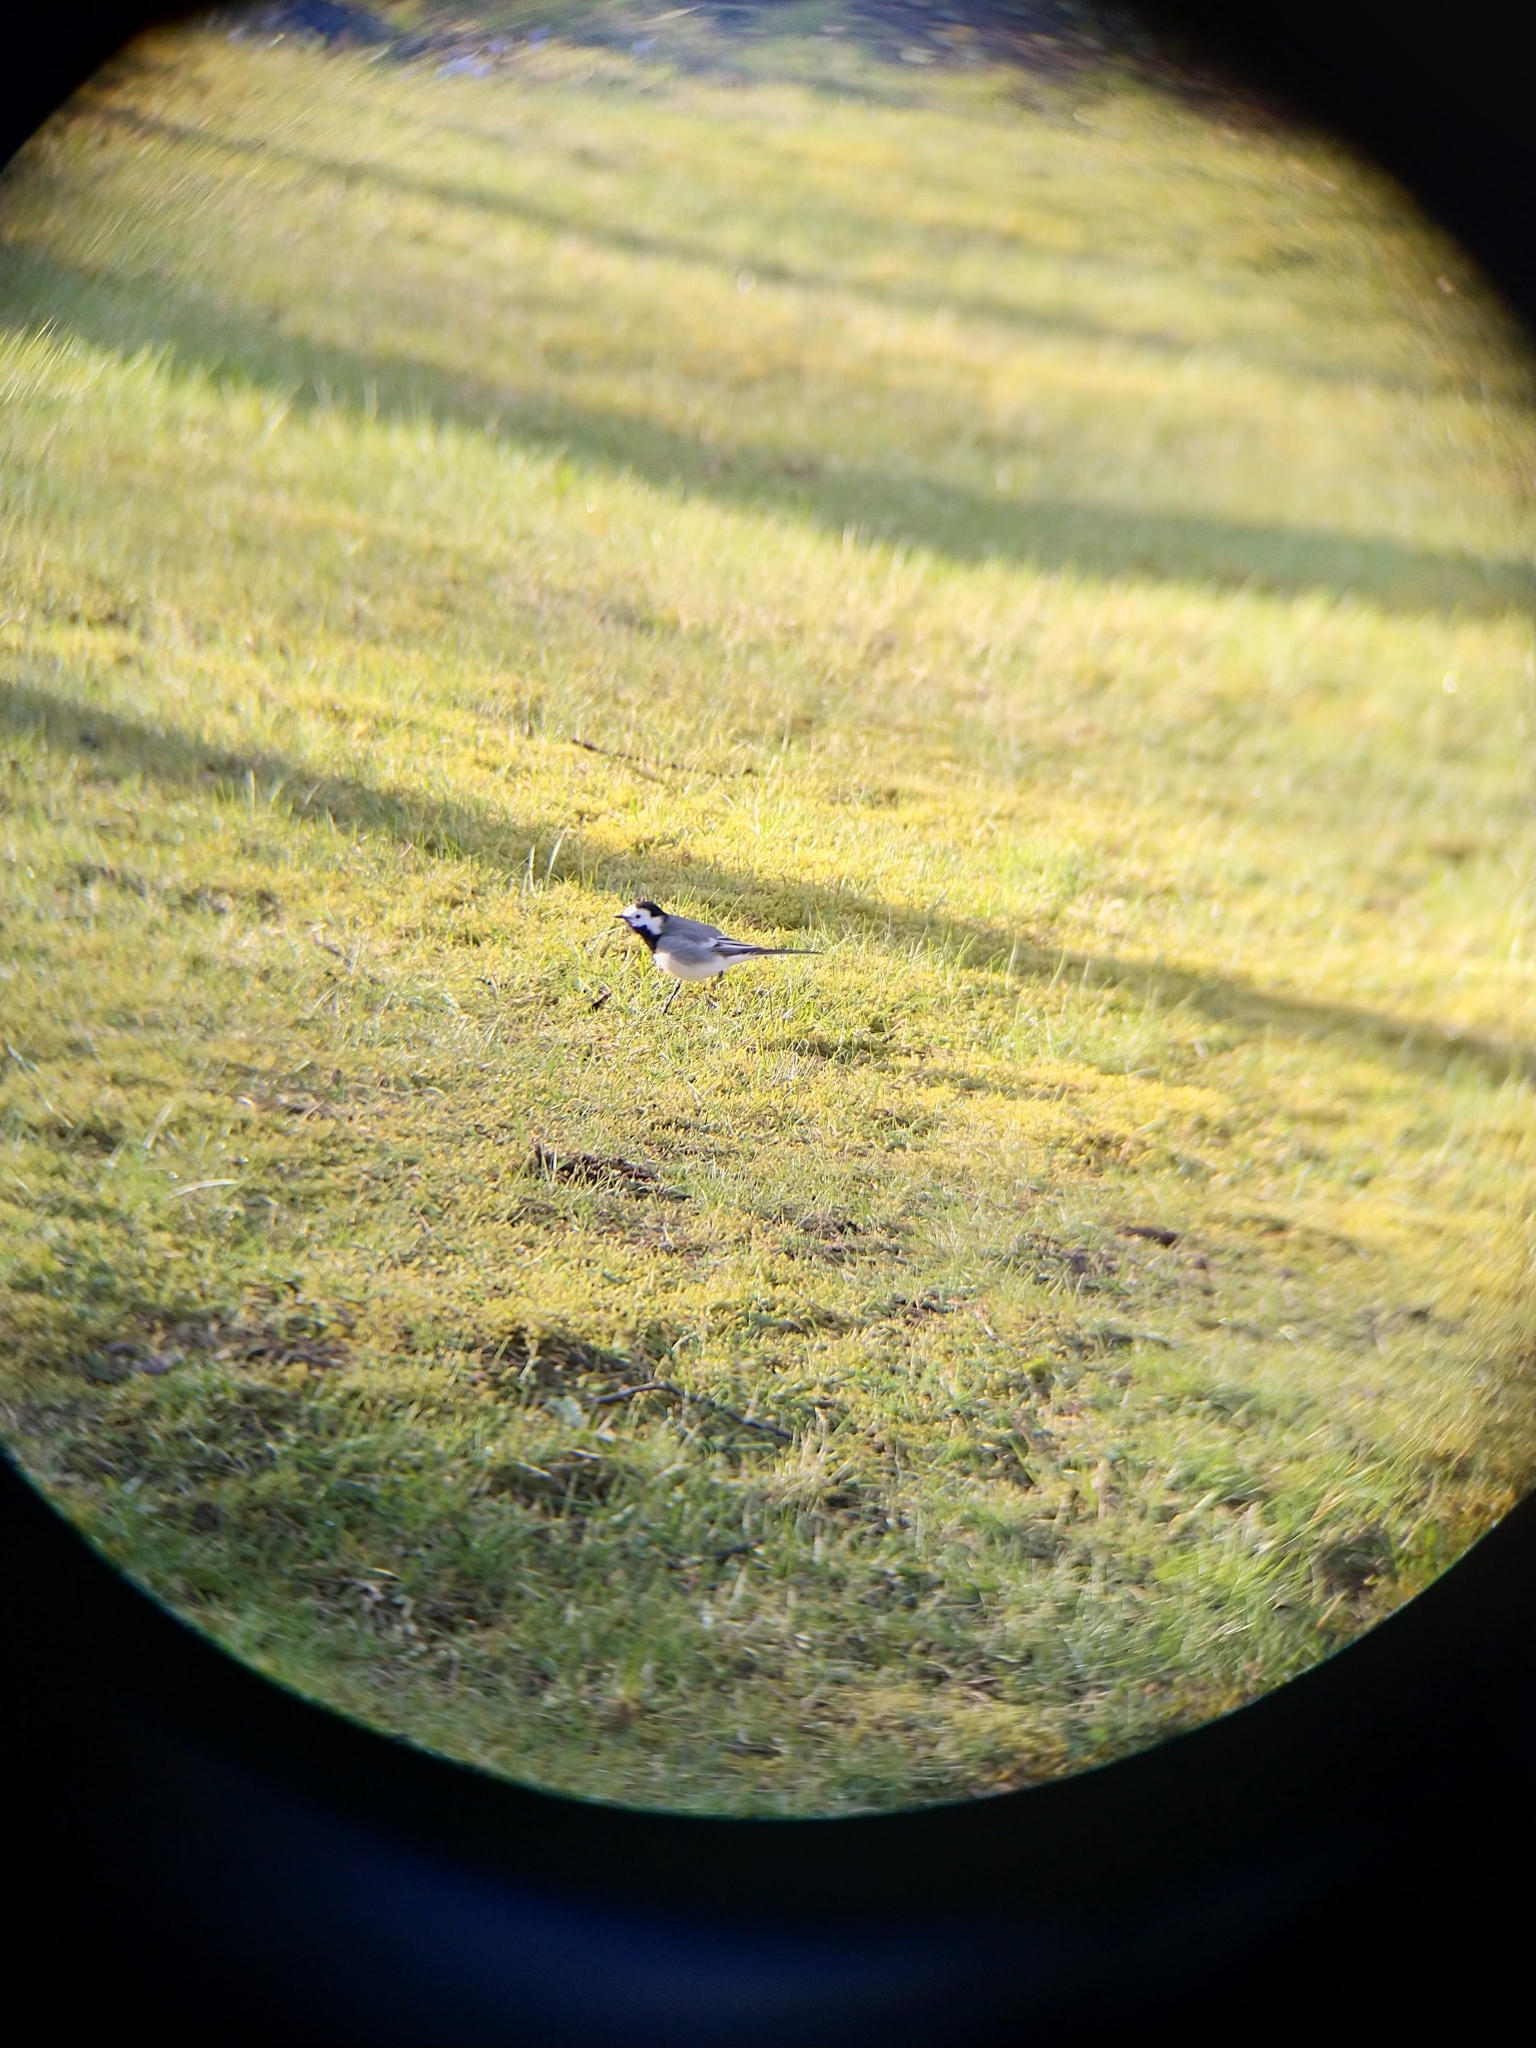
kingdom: Animalia
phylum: Chordata
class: Aves
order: Passeriformes
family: Motacillidae
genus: Motacilla
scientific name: Motacilla alba
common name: White wagtail
